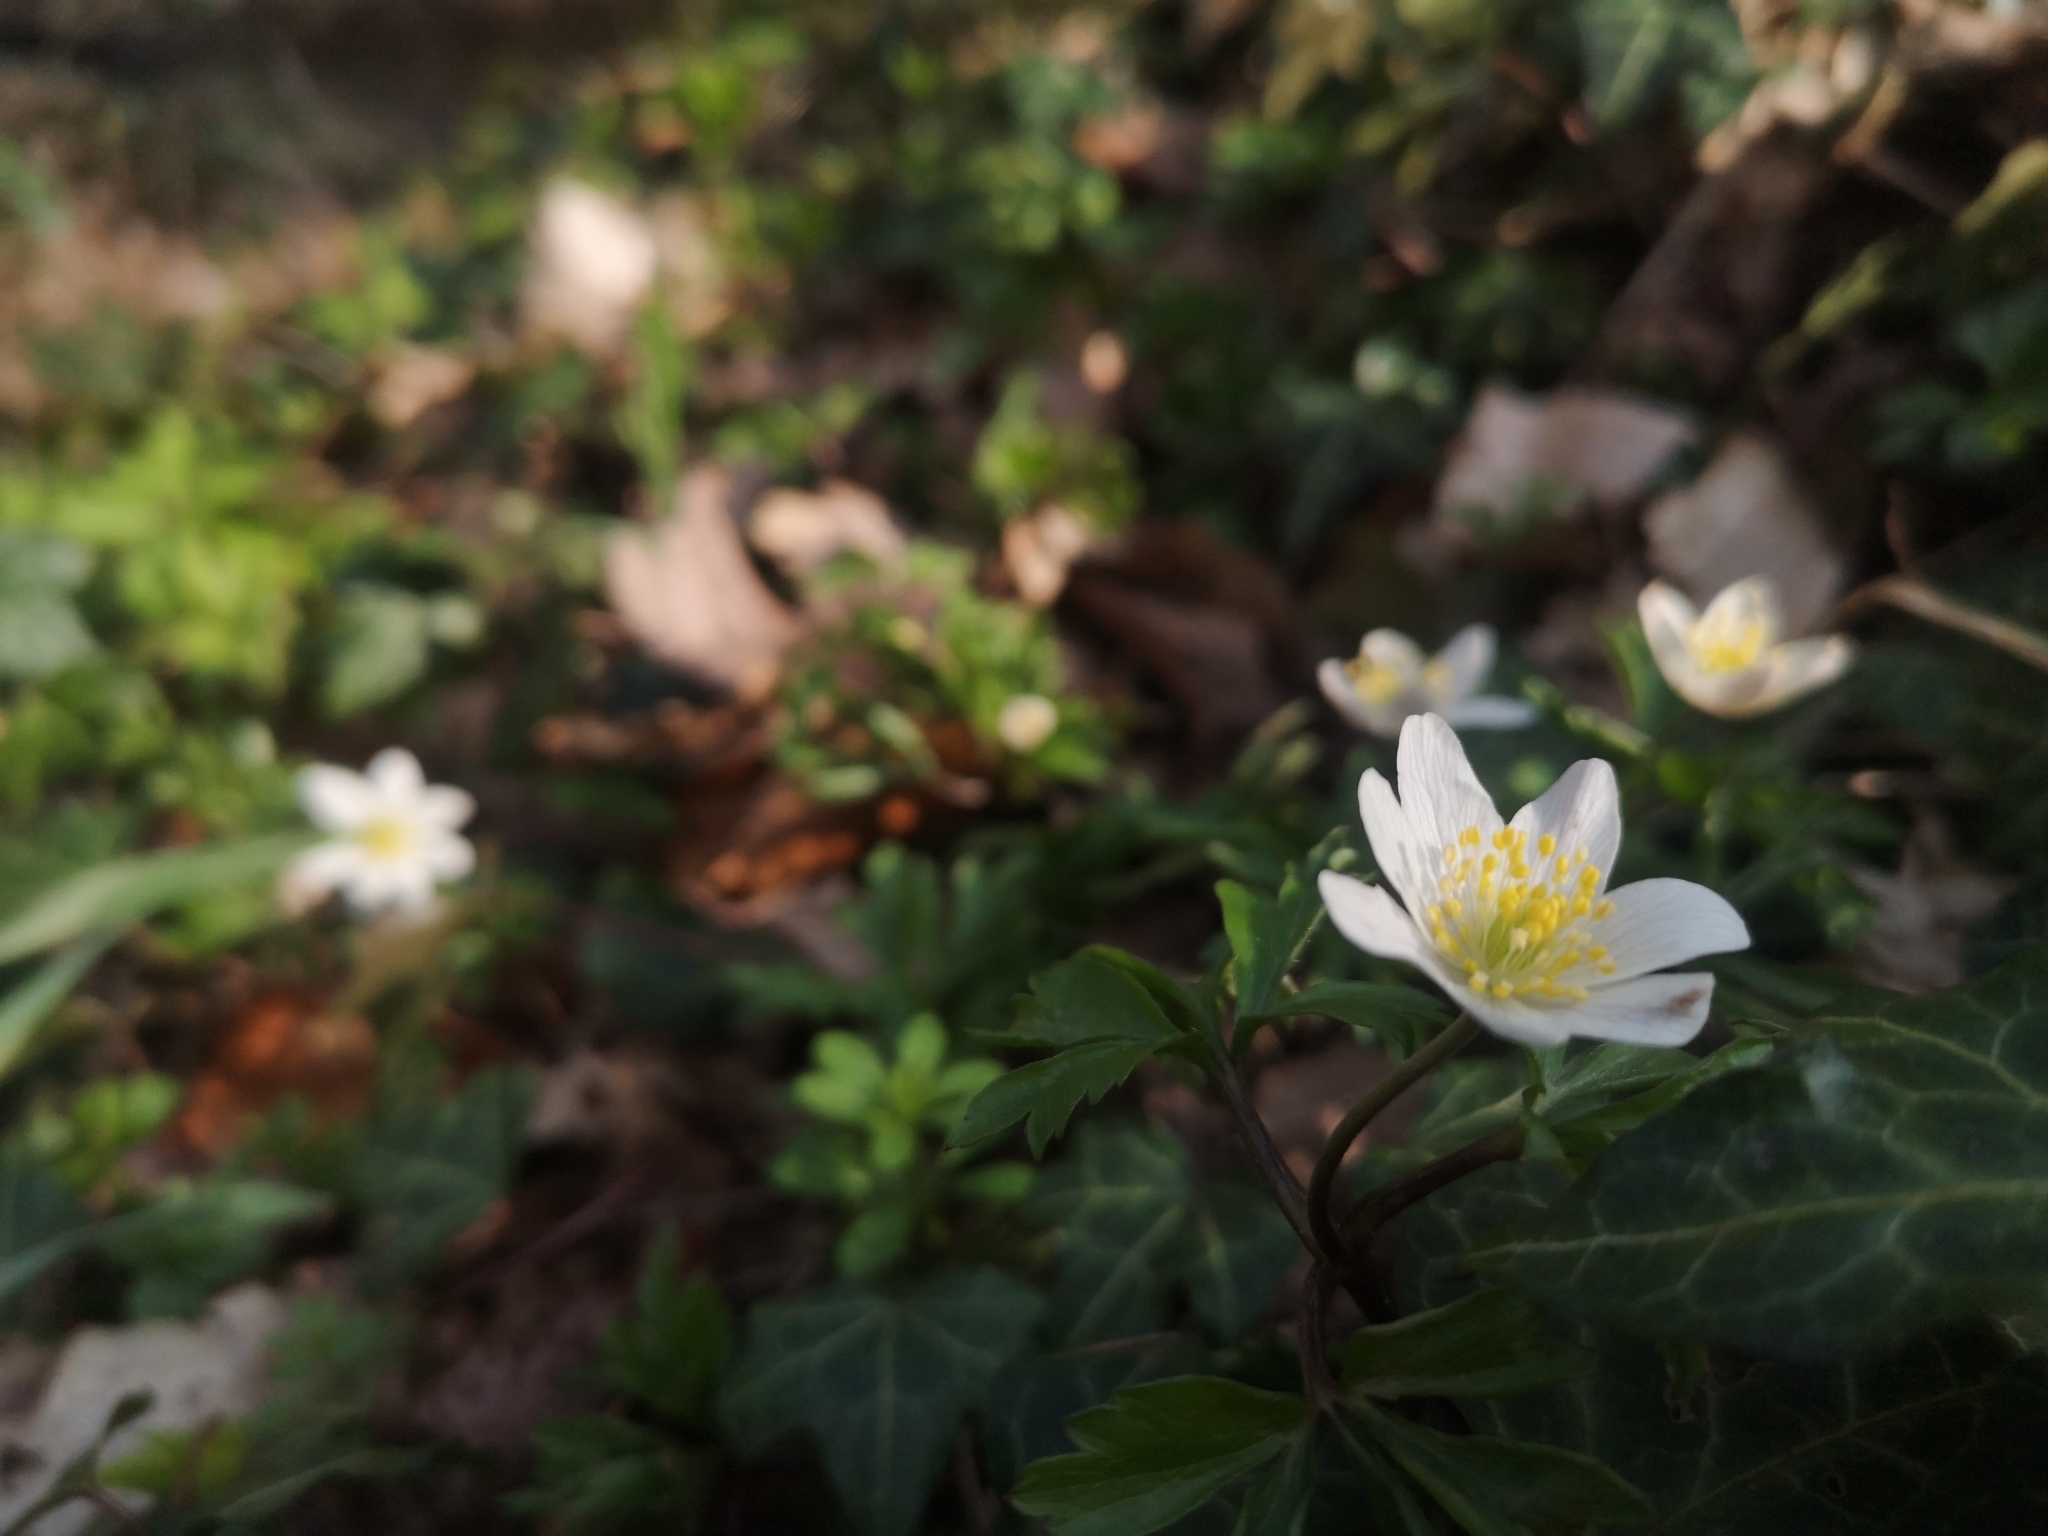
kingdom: Plantae
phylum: Tracheophyta
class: Magnoliopsida
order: Ranunculales
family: Ranunculaceae
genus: Anemone
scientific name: Anemone nemorosa
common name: Wood anemone
